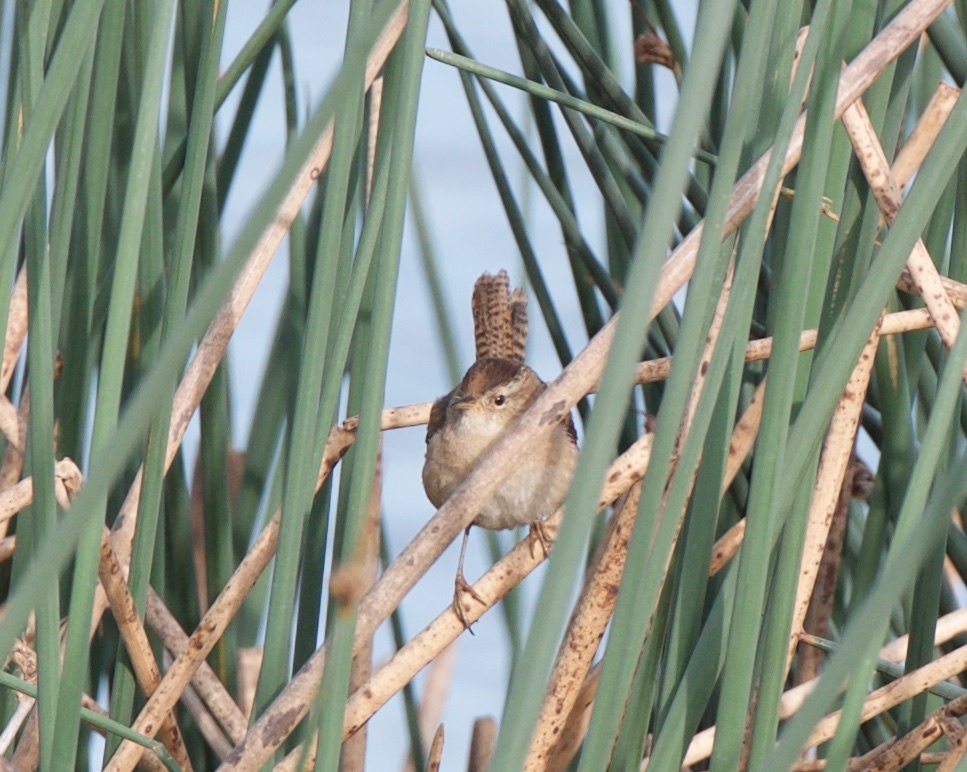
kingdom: Animalia
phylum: Chordata
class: Aves
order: Passeriformes
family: Troglodytidae
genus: Cistothorus
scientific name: Cistothorus palustris
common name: Marsh wren
